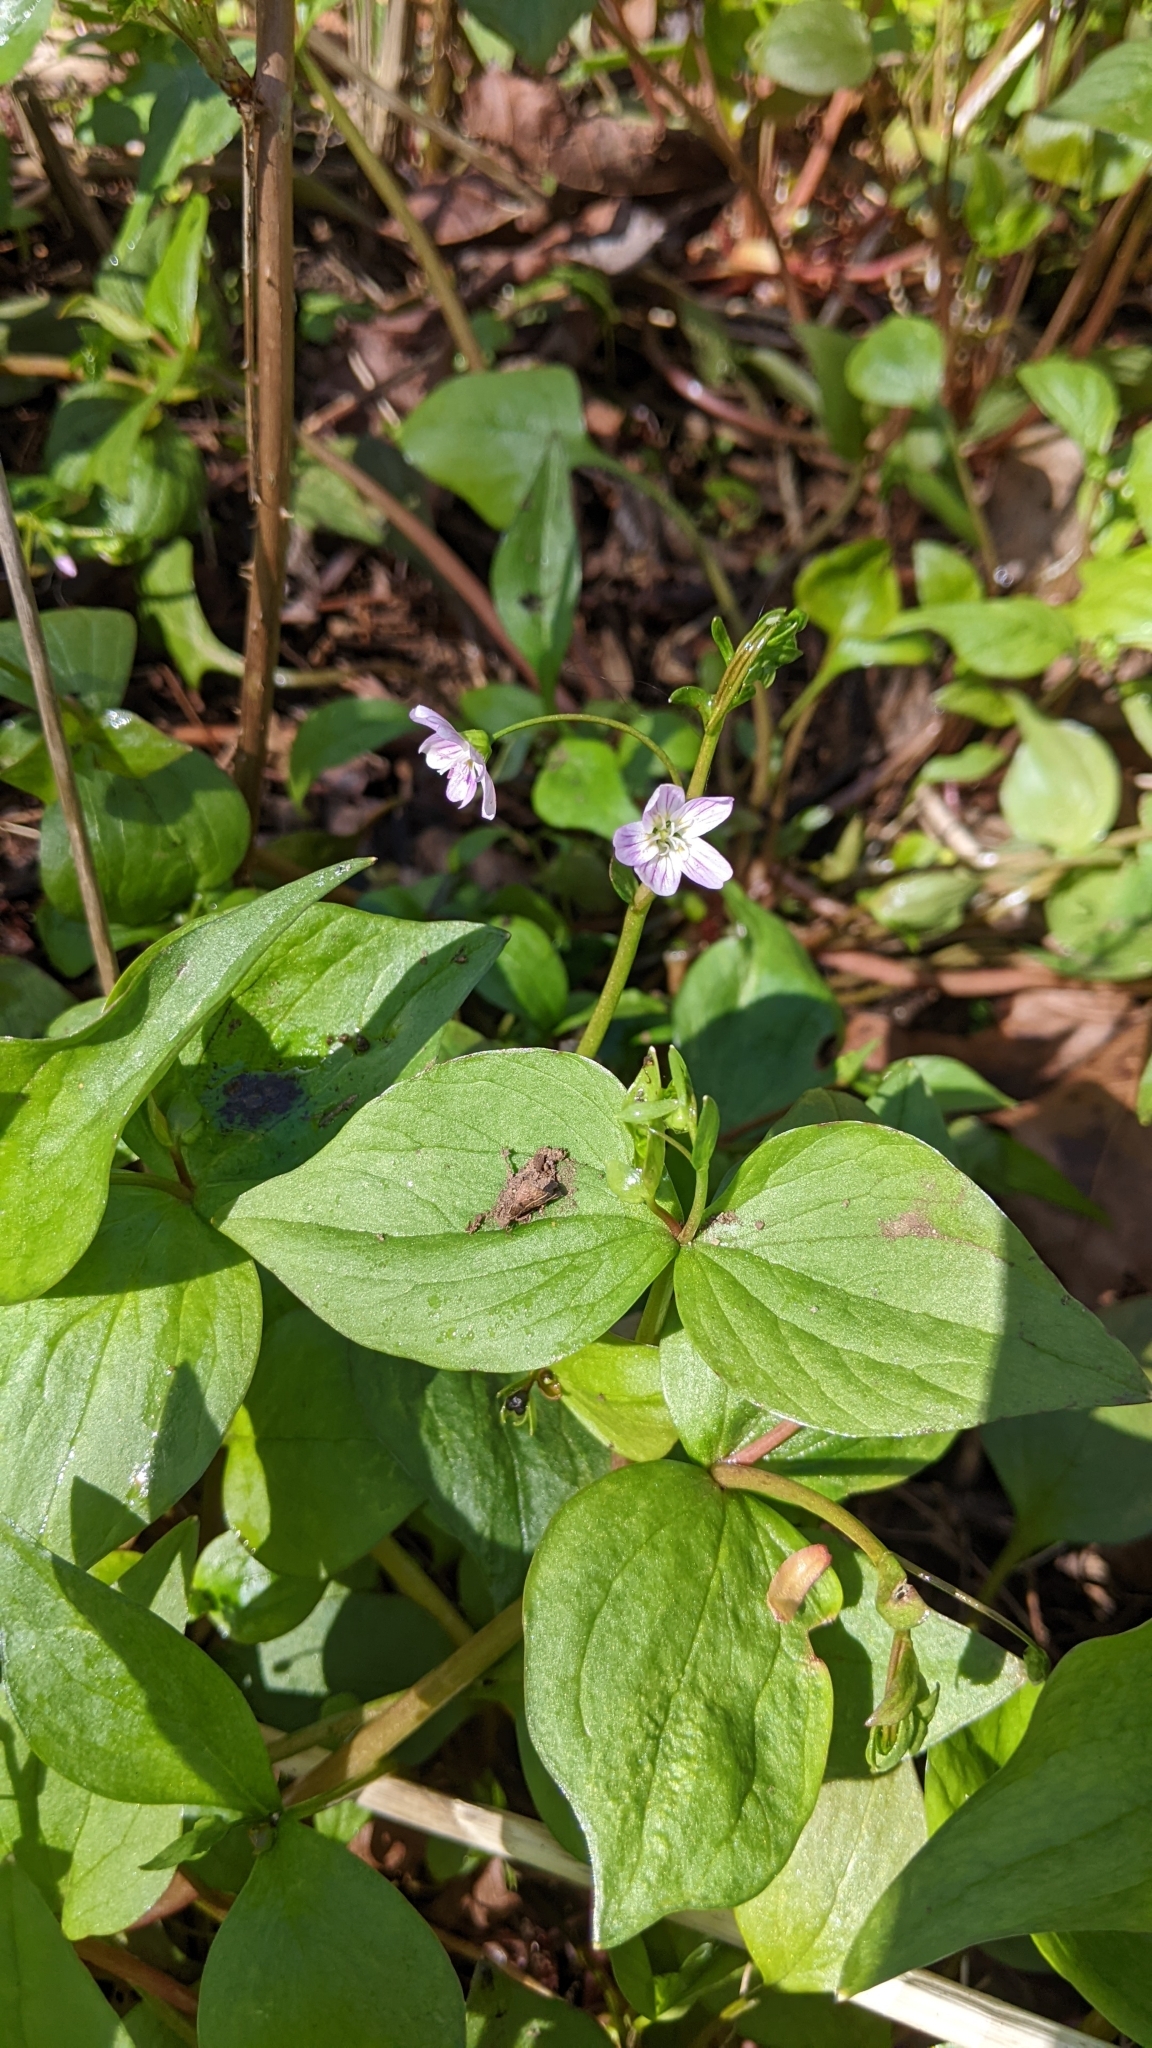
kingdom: Plantae
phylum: Tracheophyta
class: Magnoliopsida
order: Caryophyllales
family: Montiaceae
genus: Claytonia
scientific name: Claytonia sibirica
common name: Pink purslane
